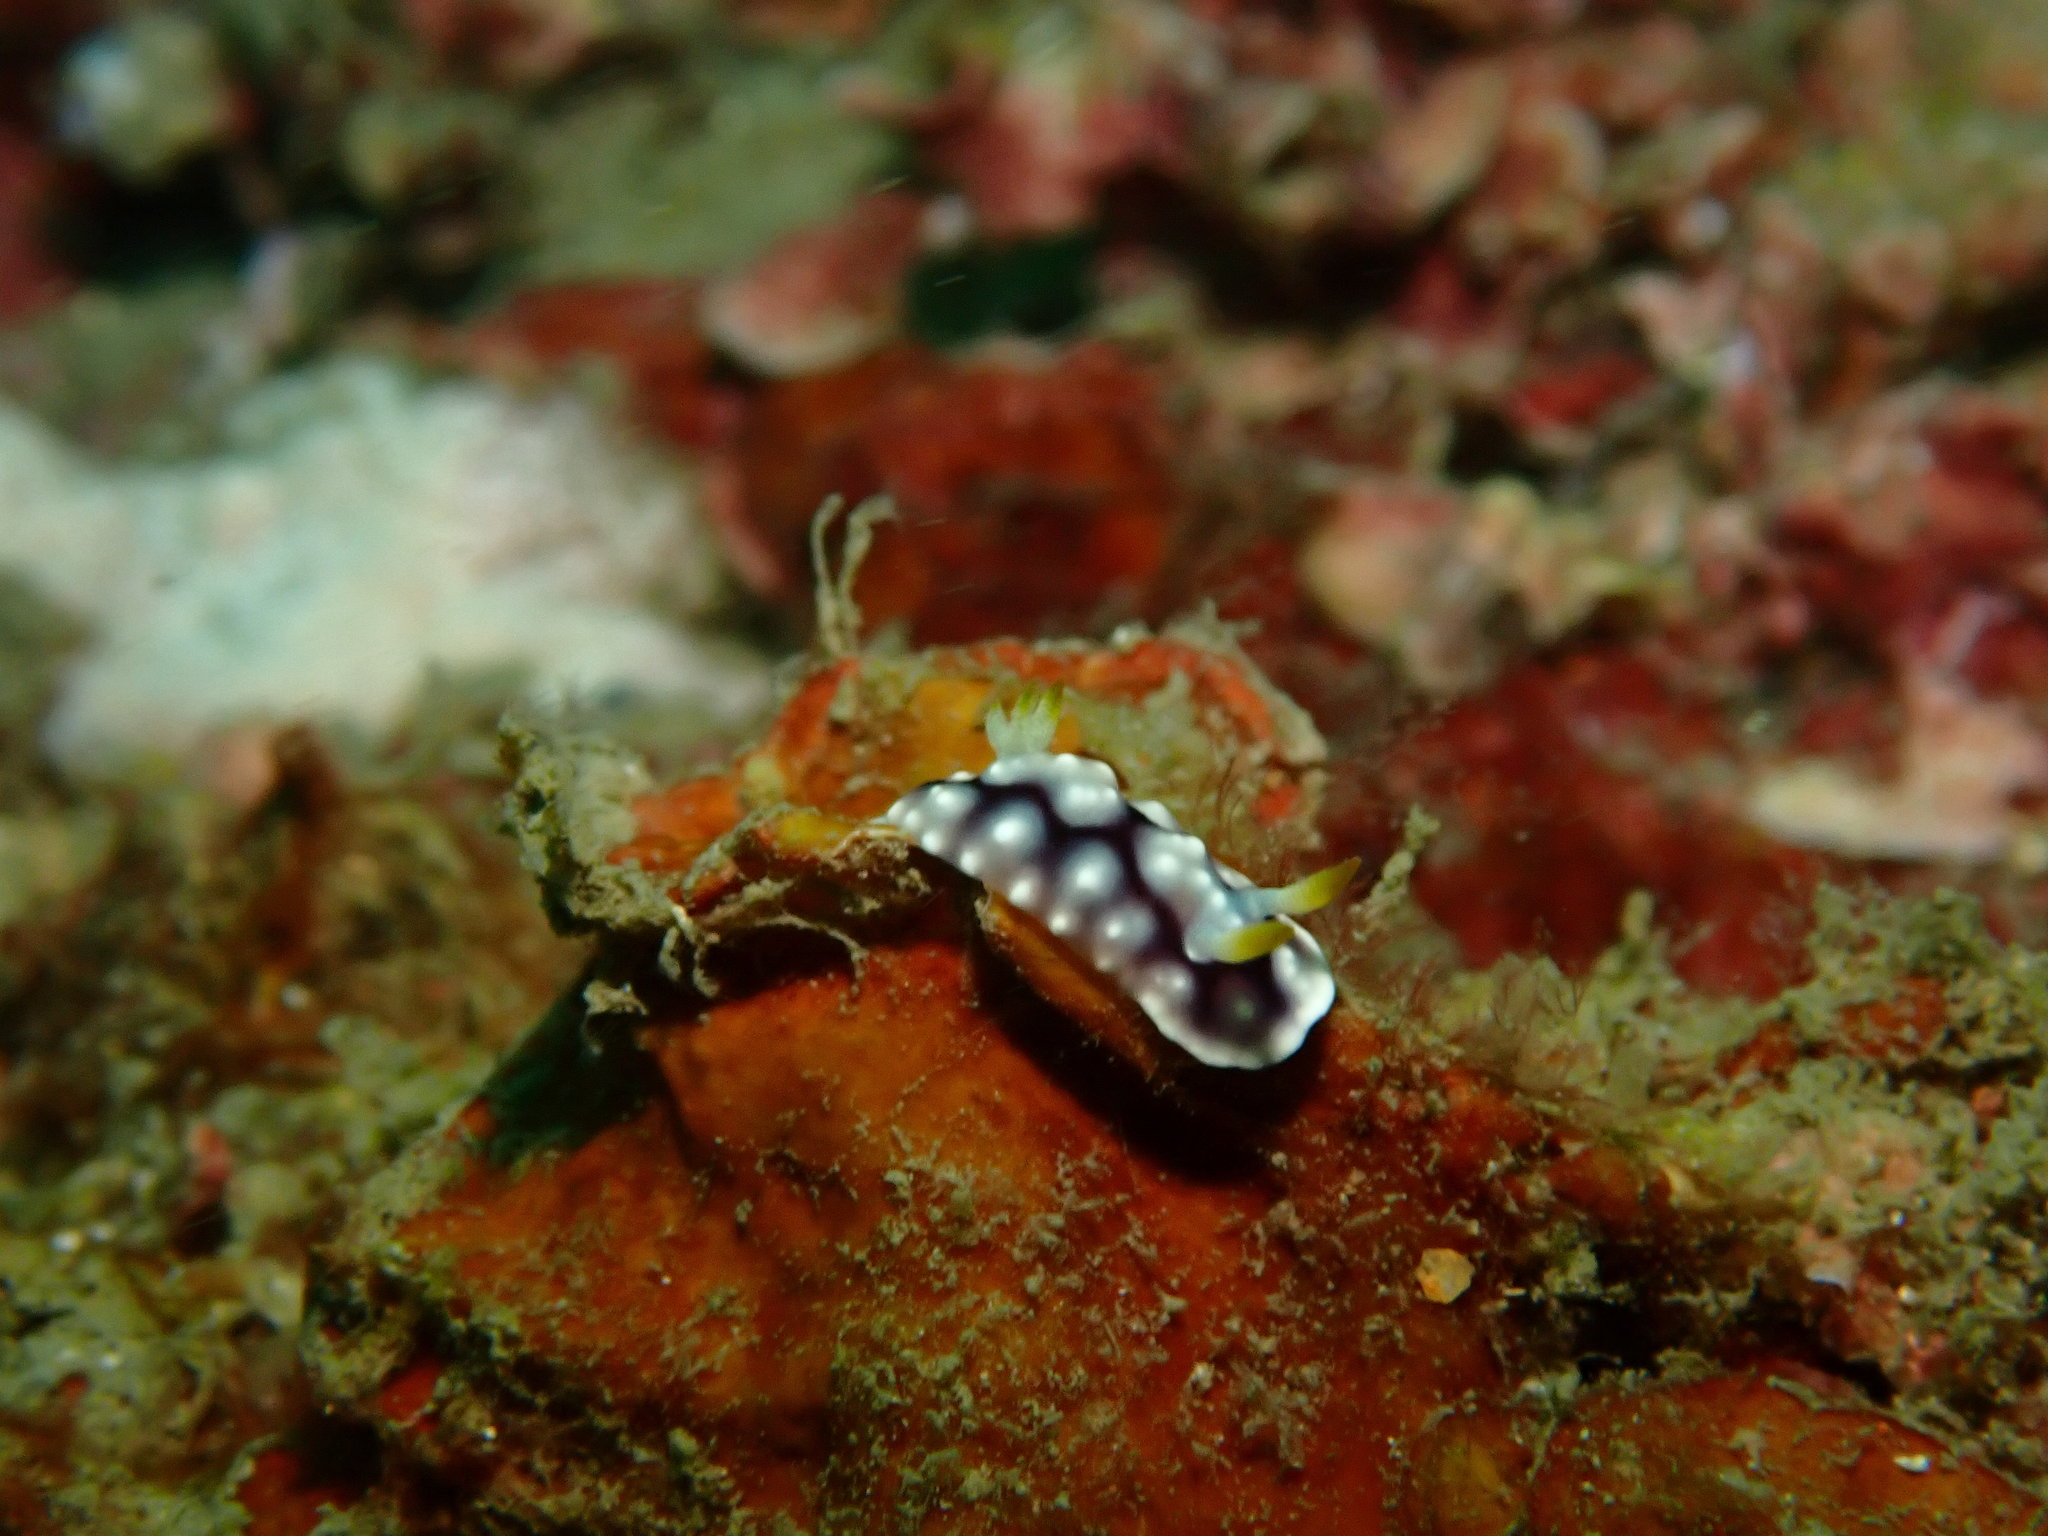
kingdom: Animalia
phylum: Mollusca
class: Gastropoda
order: Nudibranchia
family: Chromodorididae
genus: Goniobranchus
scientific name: Goniobranchus geometricus
